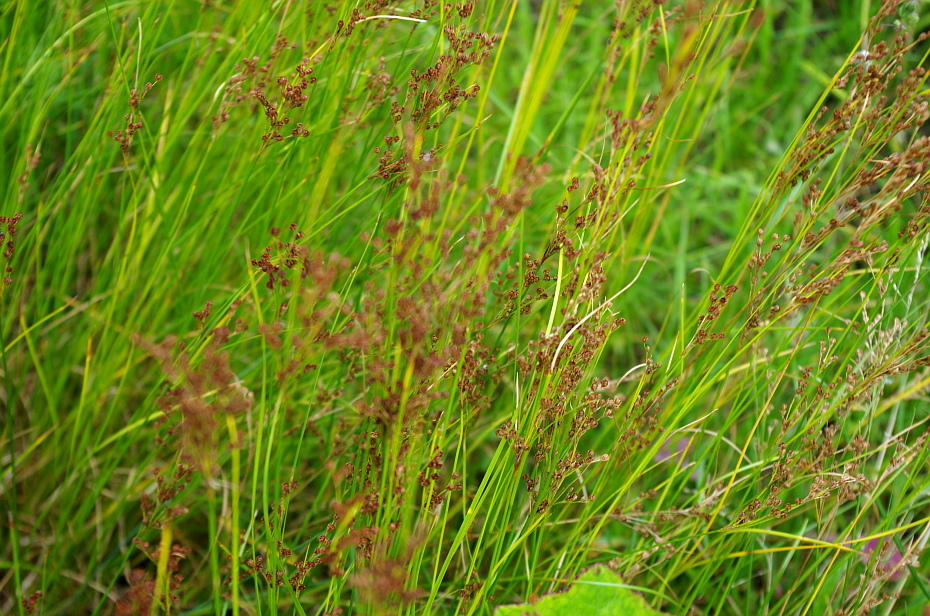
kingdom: Plantae
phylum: Tracheophyta
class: Liliopsida
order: Poales
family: Juncaceae
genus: Juncus
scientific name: Juncus compressus
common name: Round-fruited rush
